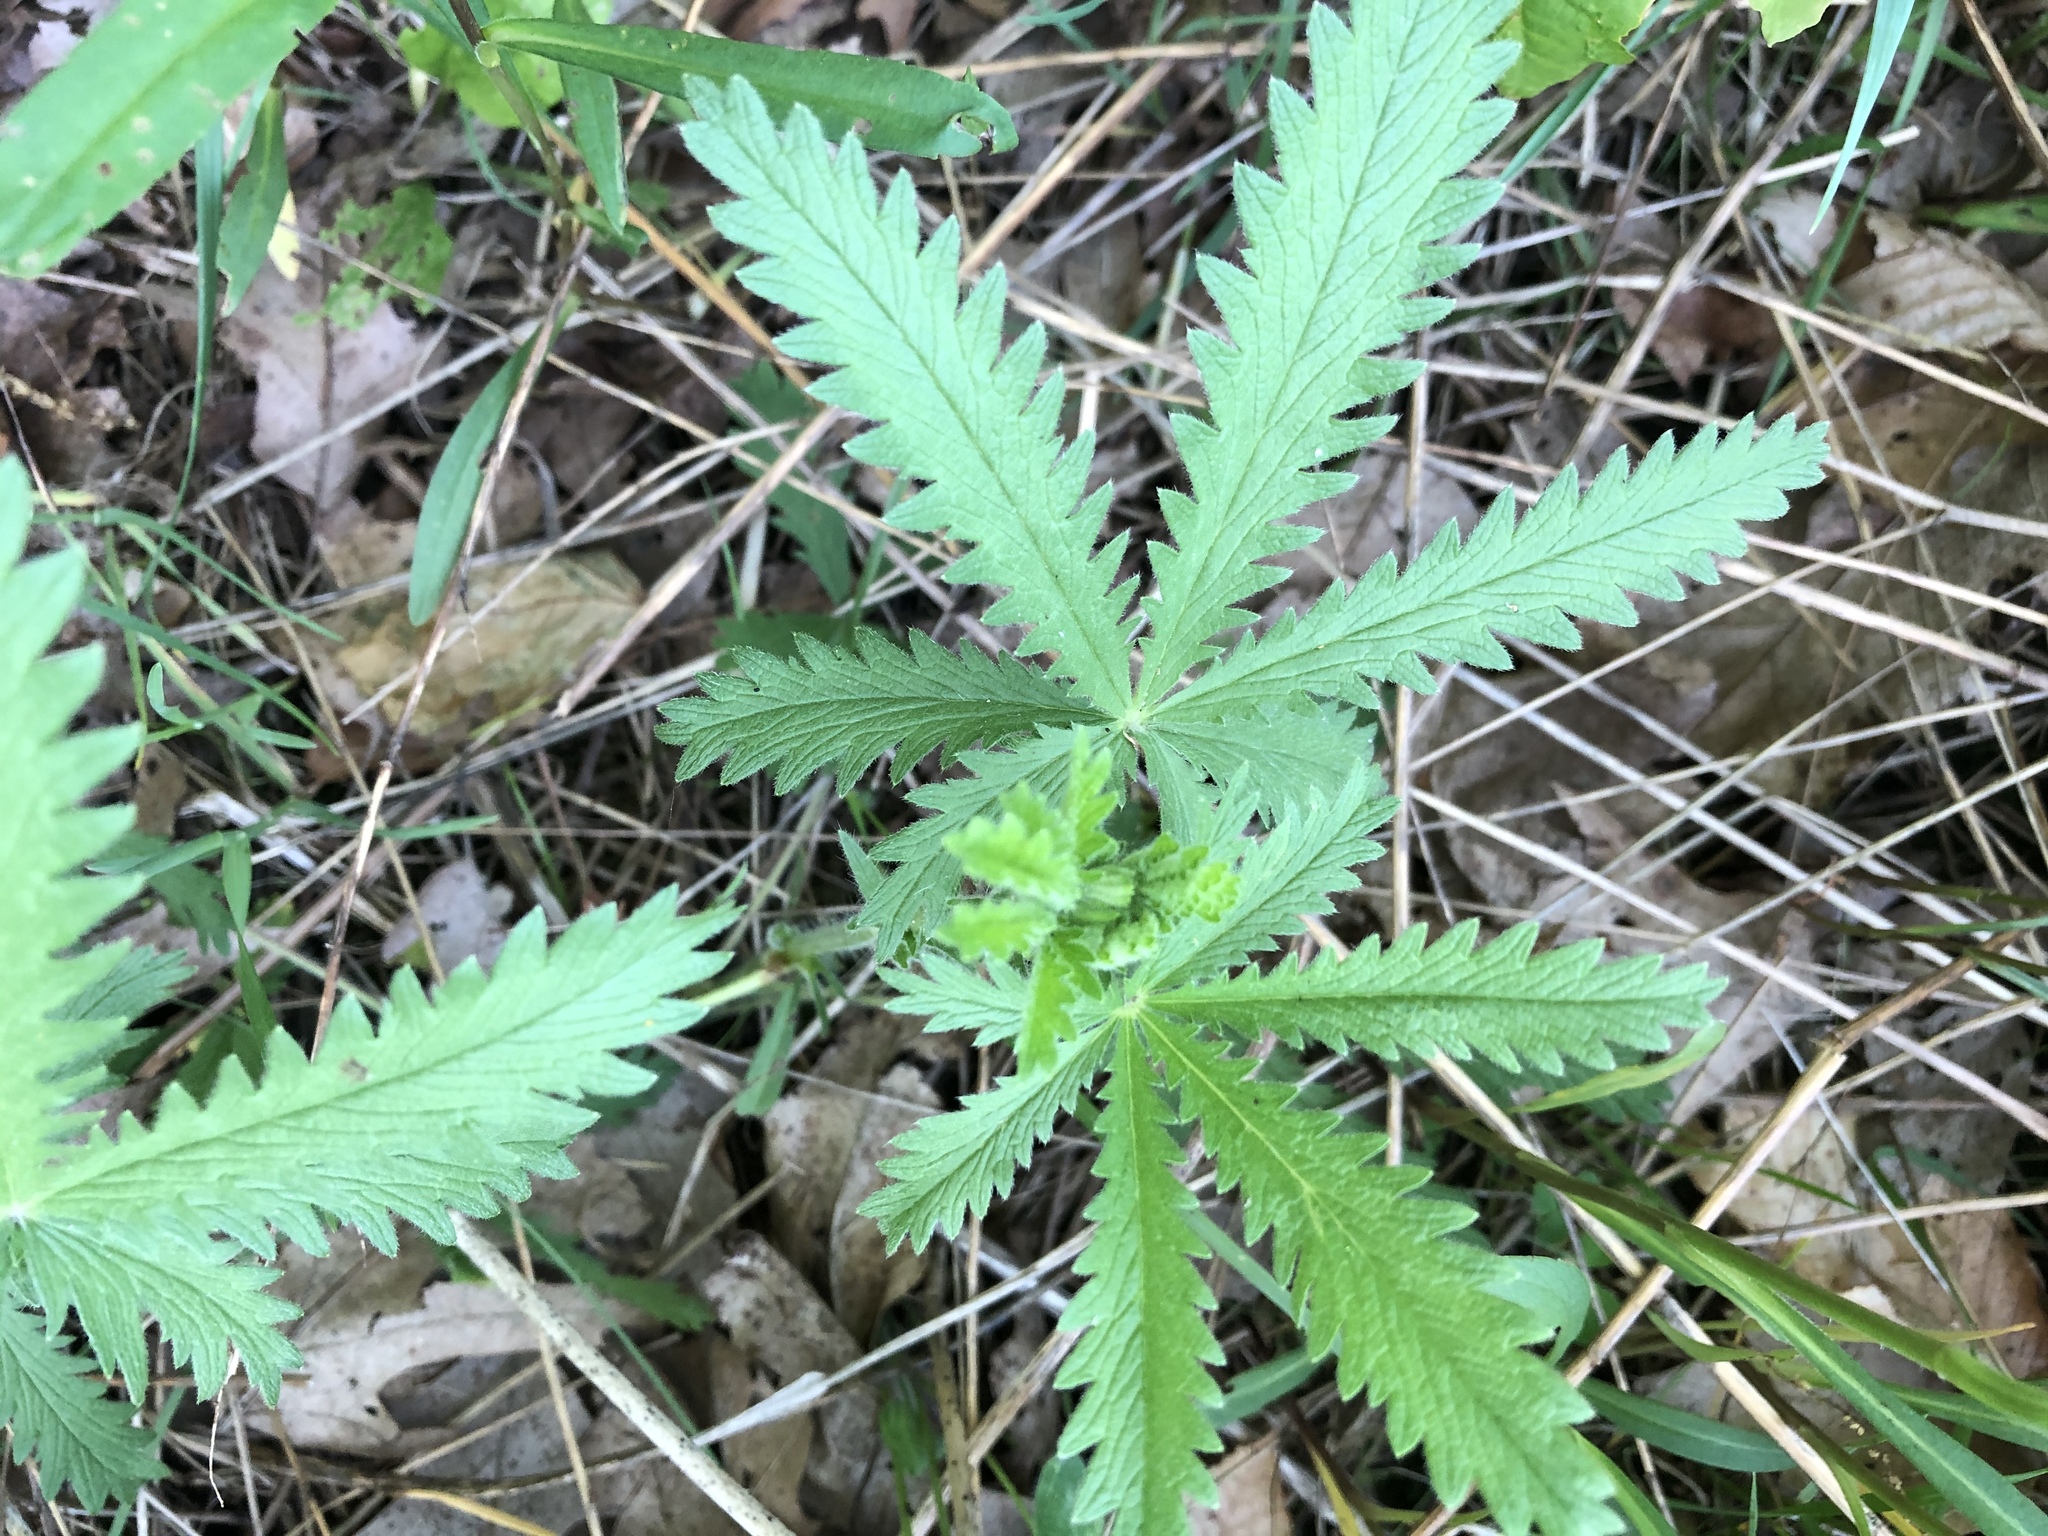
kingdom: Plantae
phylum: Tracheophyta
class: Magnoliopsida
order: Rosales
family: Rosaceae
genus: Potentilla
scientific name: Potentilla recta
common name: Sulphur cinquefoil
